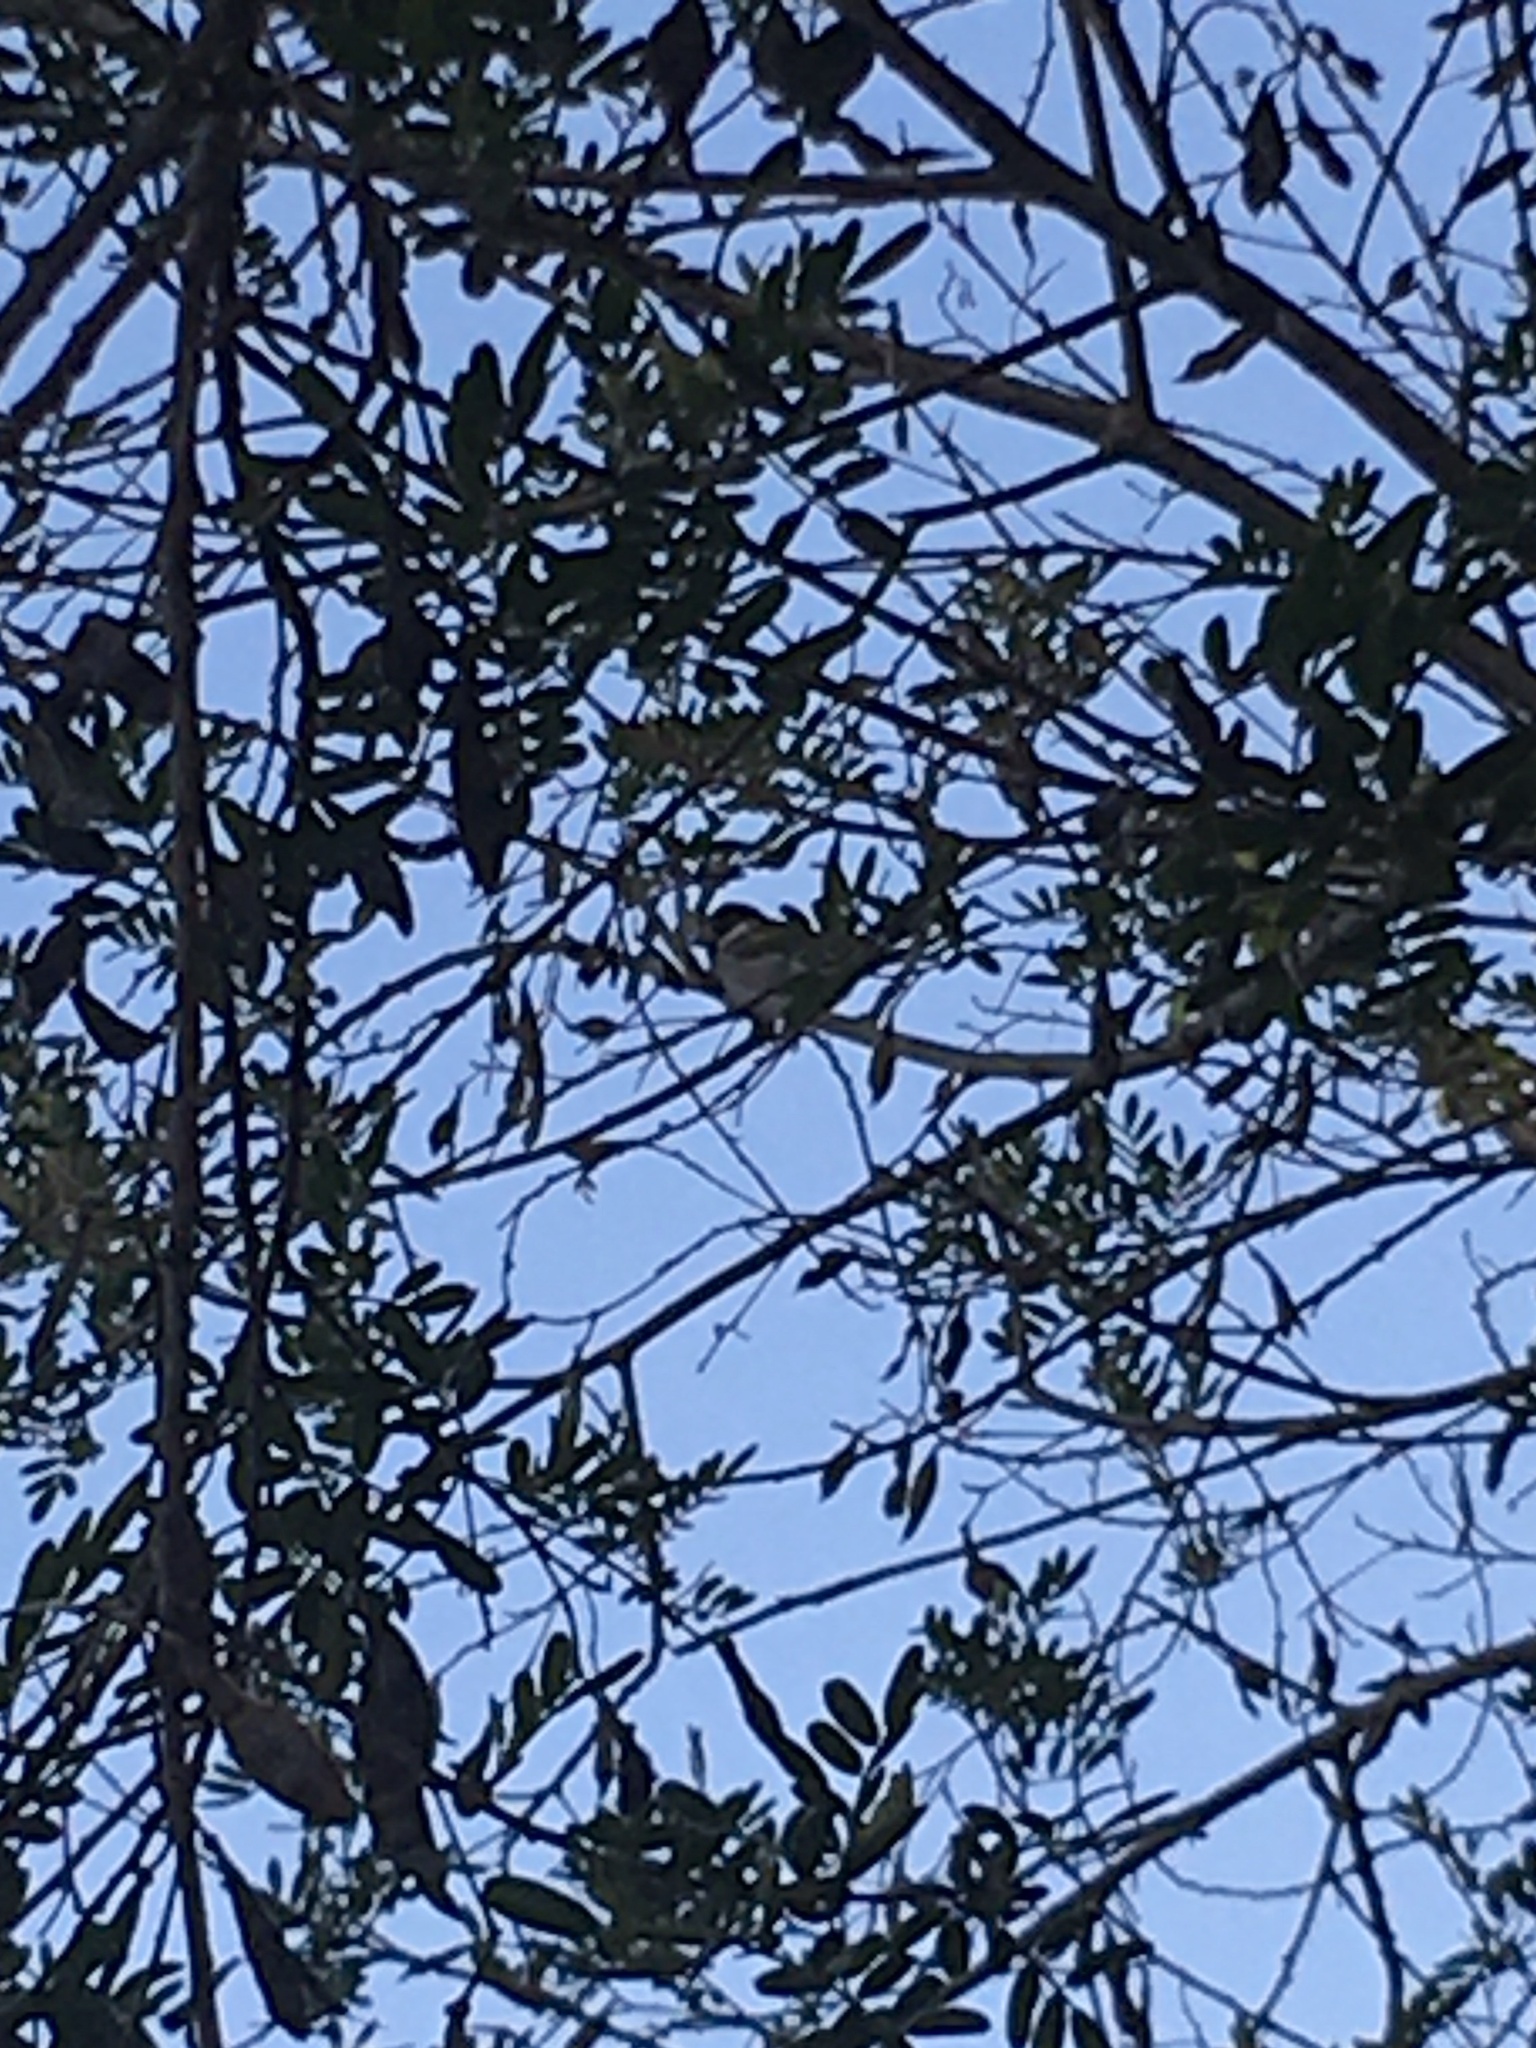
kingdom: Animalia
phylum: Chordata
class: Aves
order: Passeriformes
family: Passeridae
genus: Passer
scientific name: Passer domesticus
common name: House sparrow
